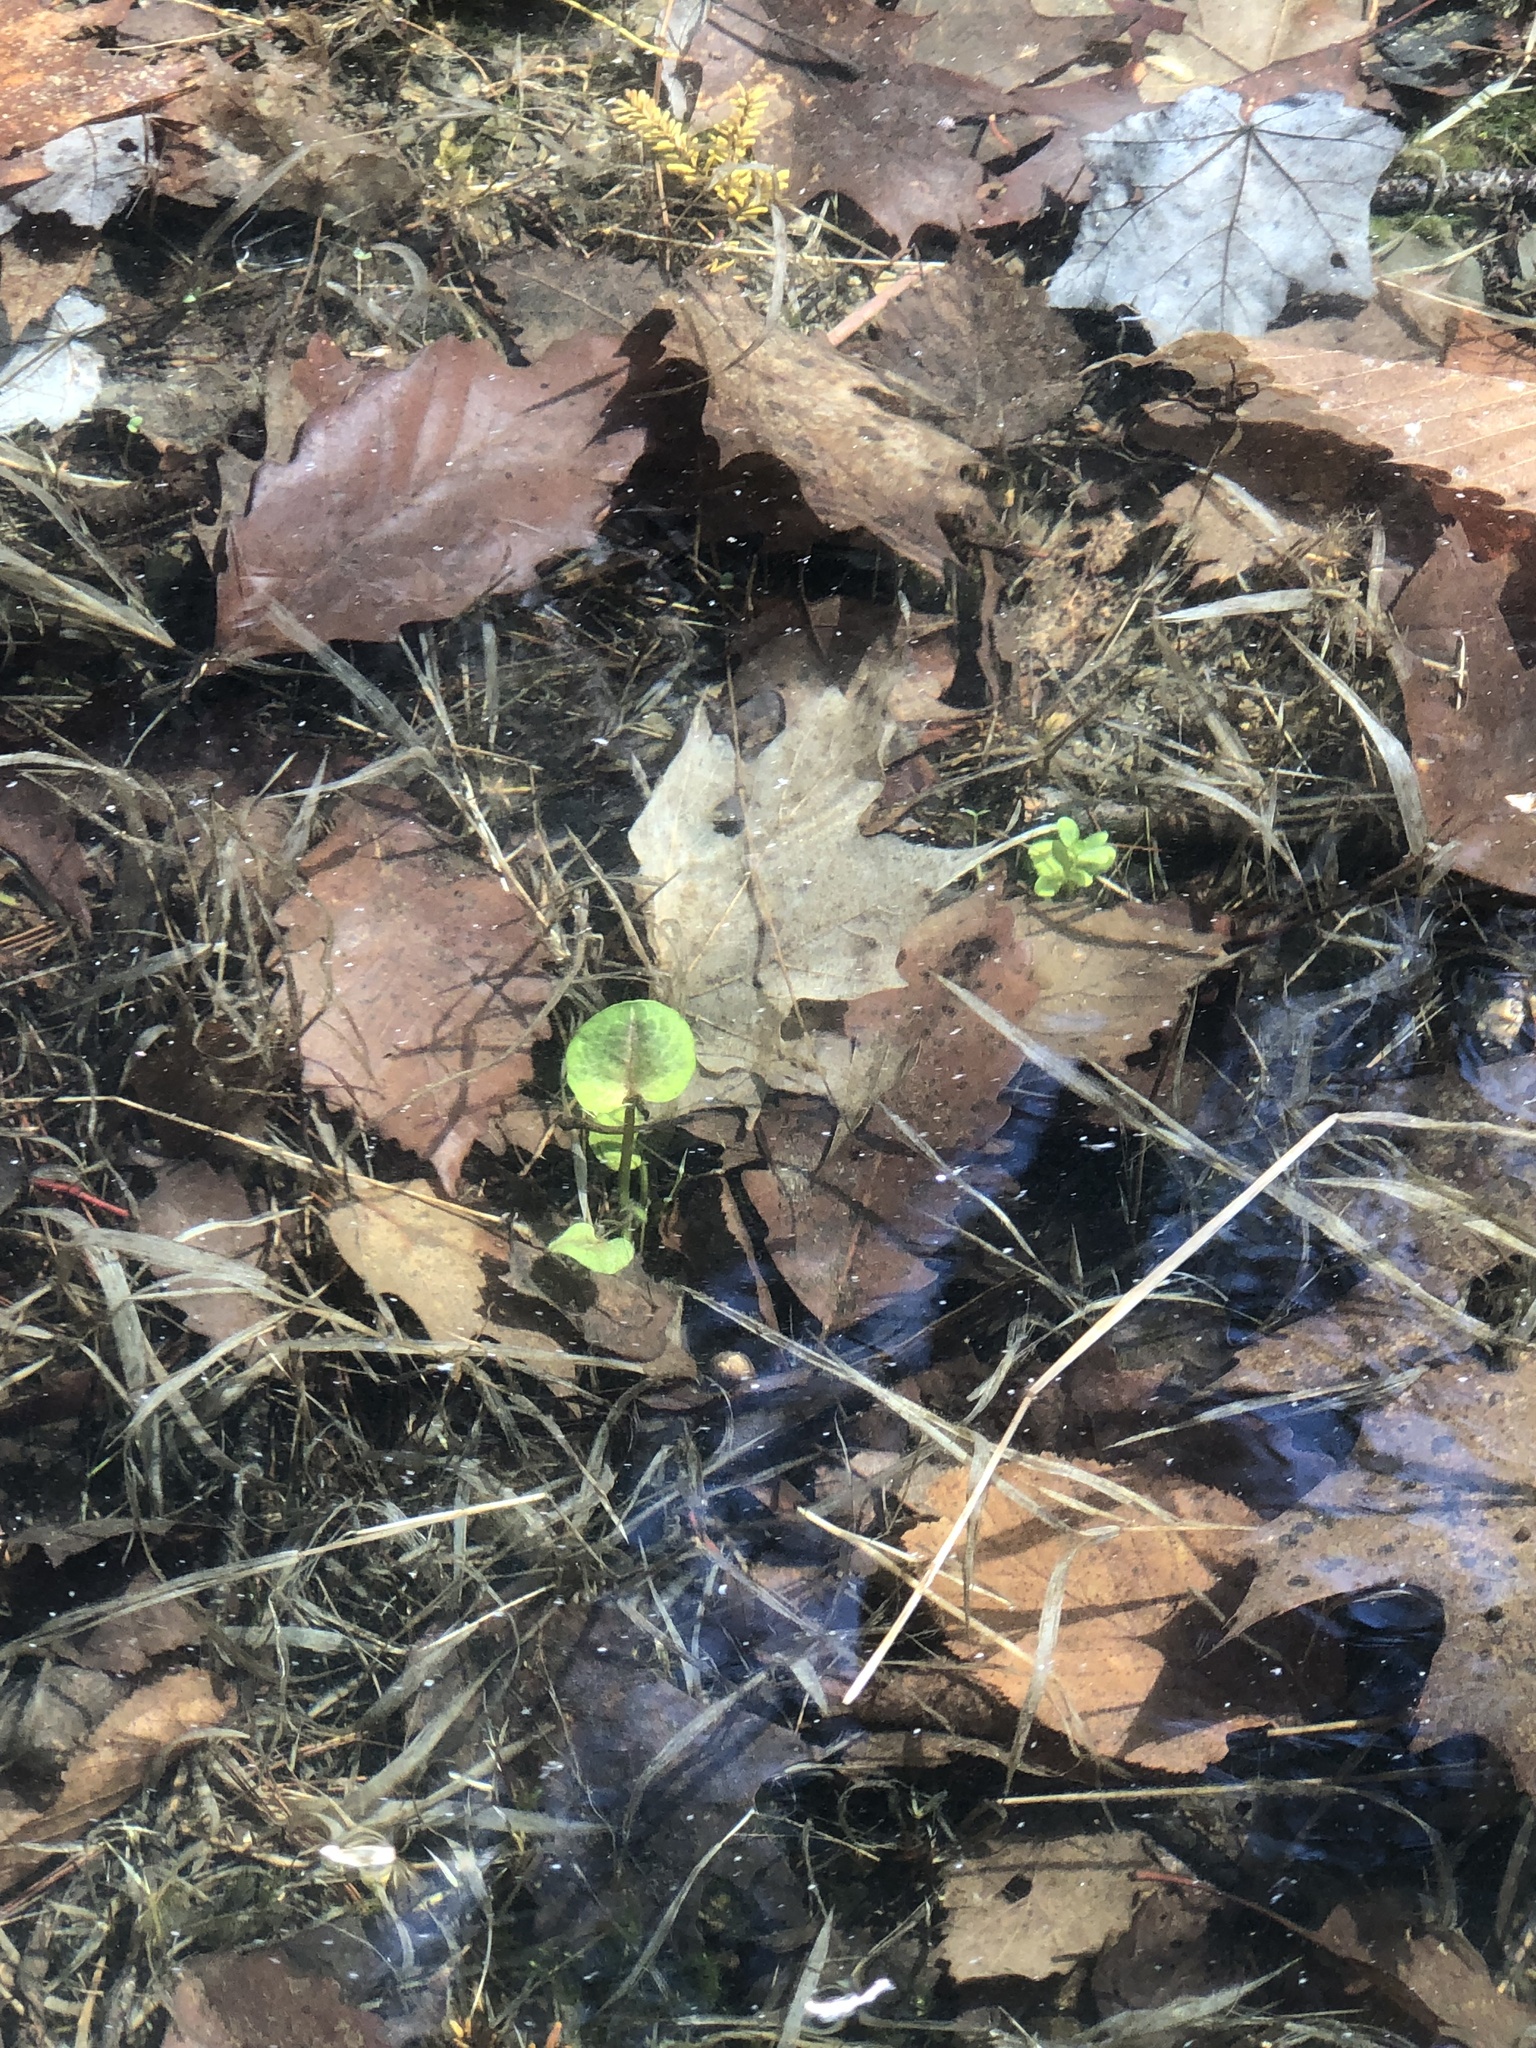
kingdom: Plantae
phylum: Tracheophyta
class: Magnoliopsida
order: Ranunculales
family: Ranunculaceae
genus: Caltha
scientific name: Caltha palustris
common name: Marsh marigold
